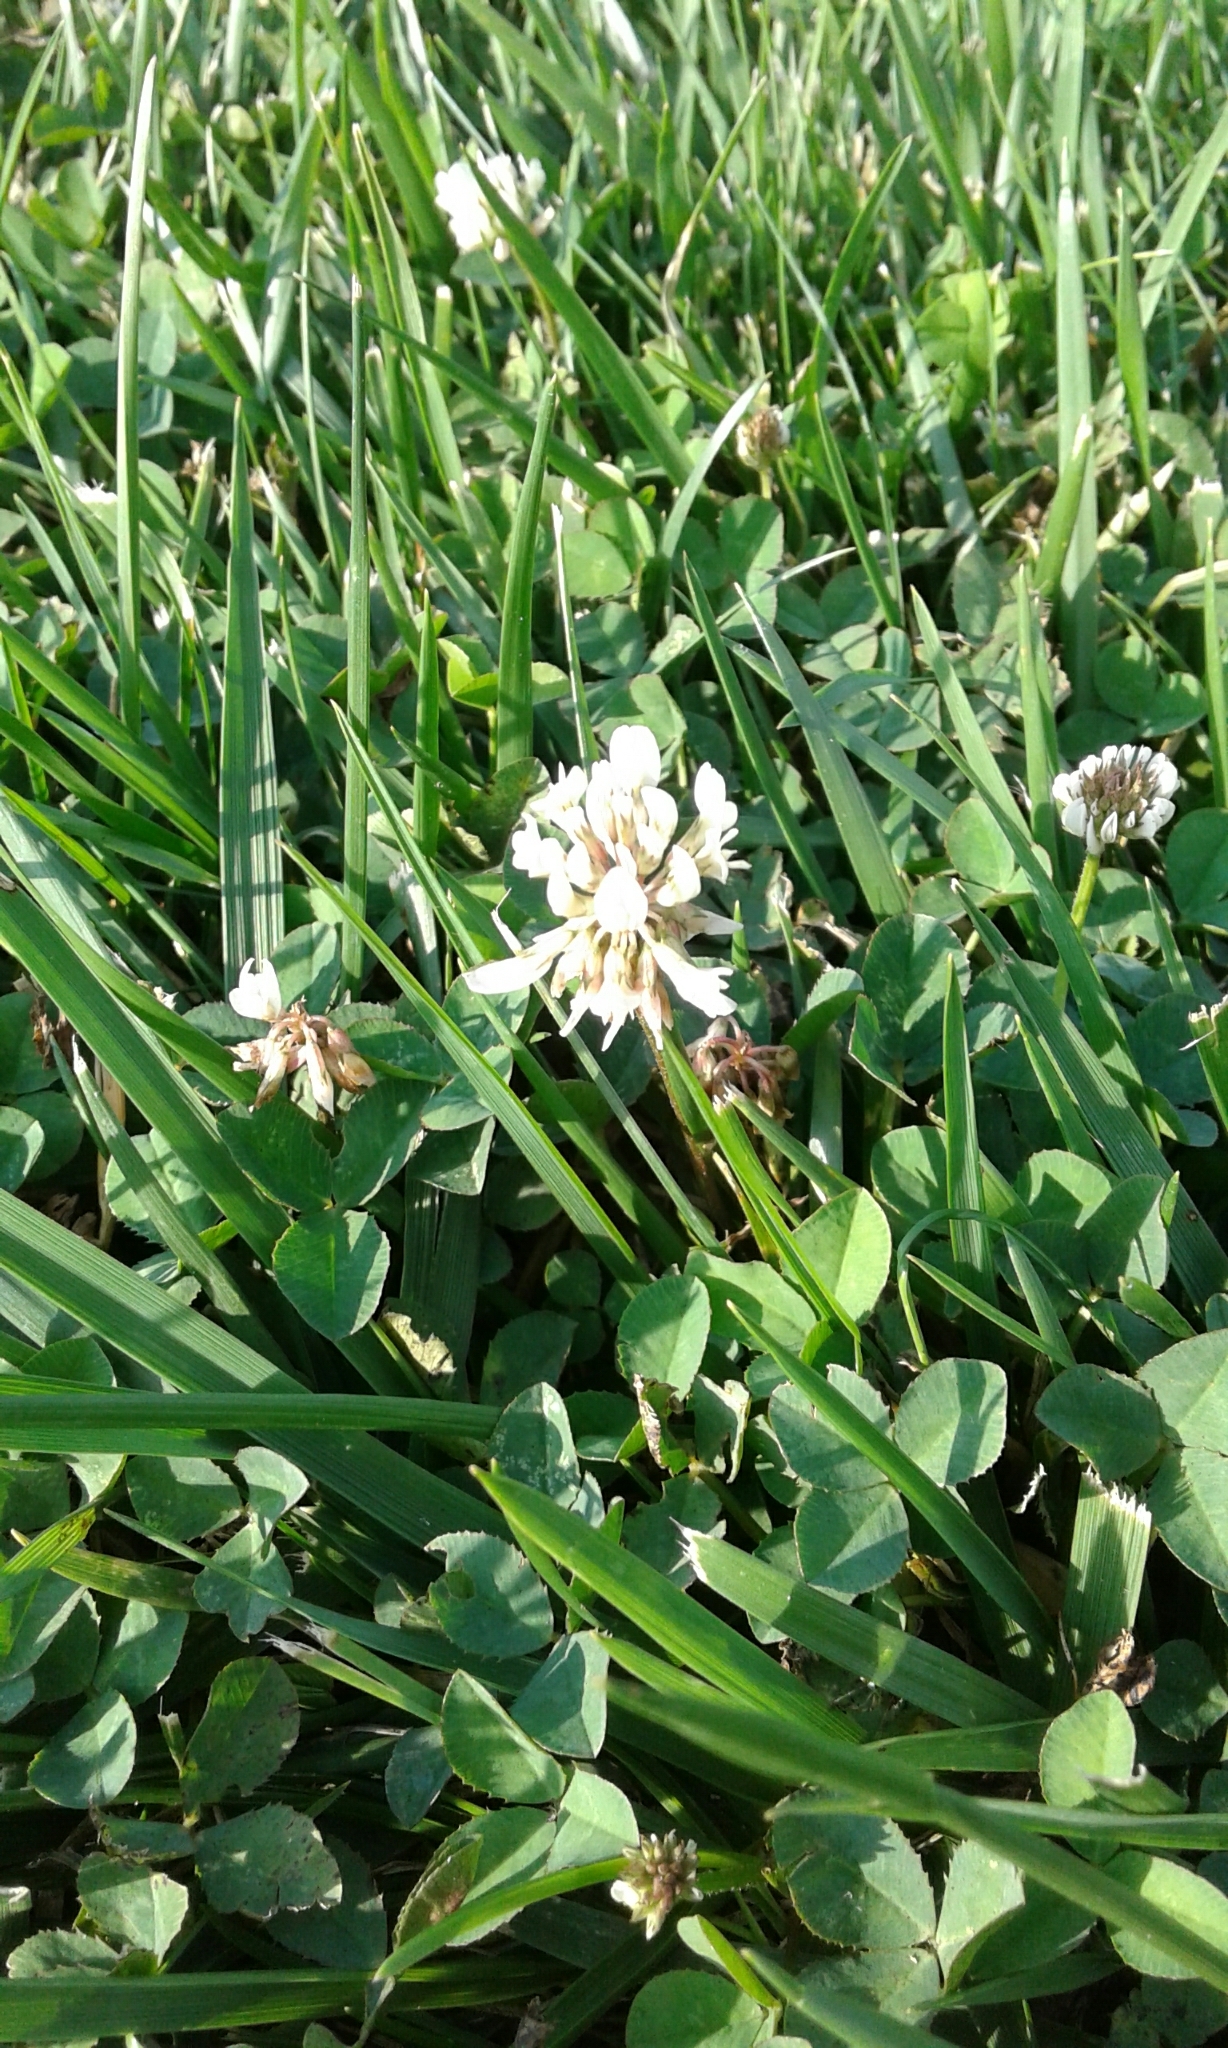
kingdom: Plantae
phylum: Tracheophyta
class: Magnoliopsida
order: Fabales
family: Fabaceae
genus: Trifolium
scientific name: Trifolium repens
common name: White clover
